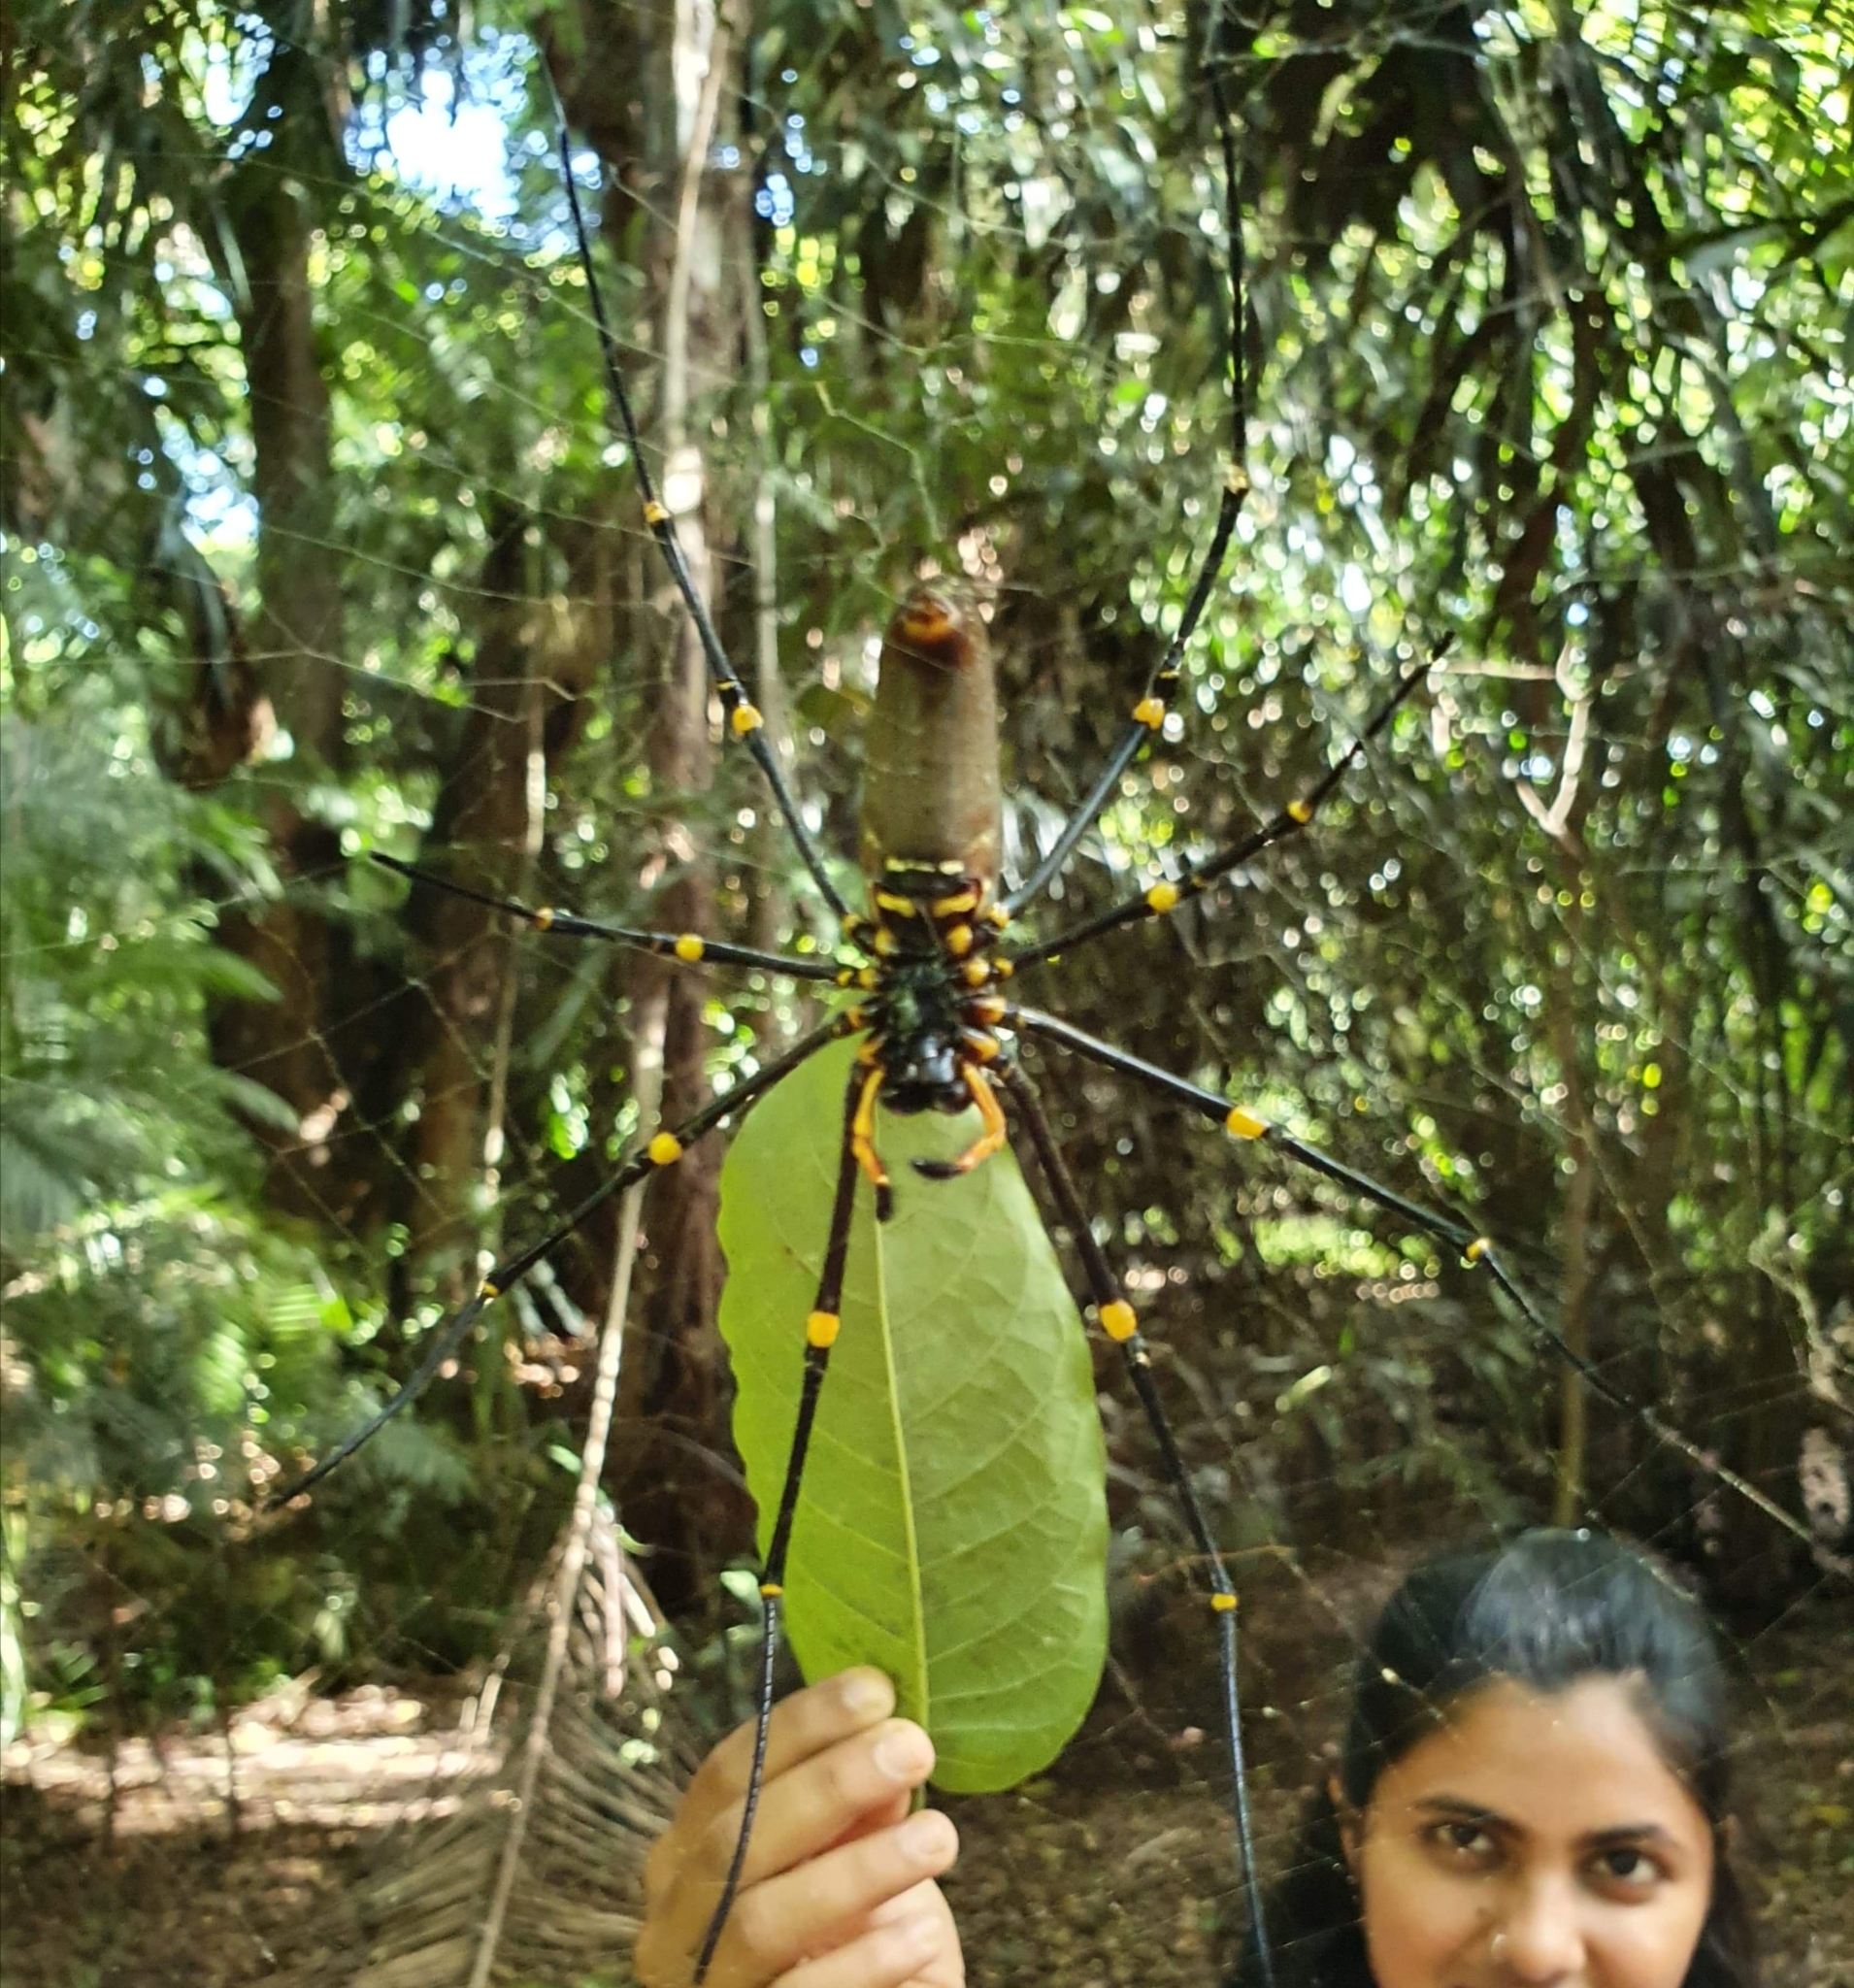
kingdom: Animalia
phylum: Arthropoda
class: Arachnida
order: Araneae
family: Araneidae
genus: Nephila
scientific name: Nephila pilipes
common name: Giant golden orb weaver
